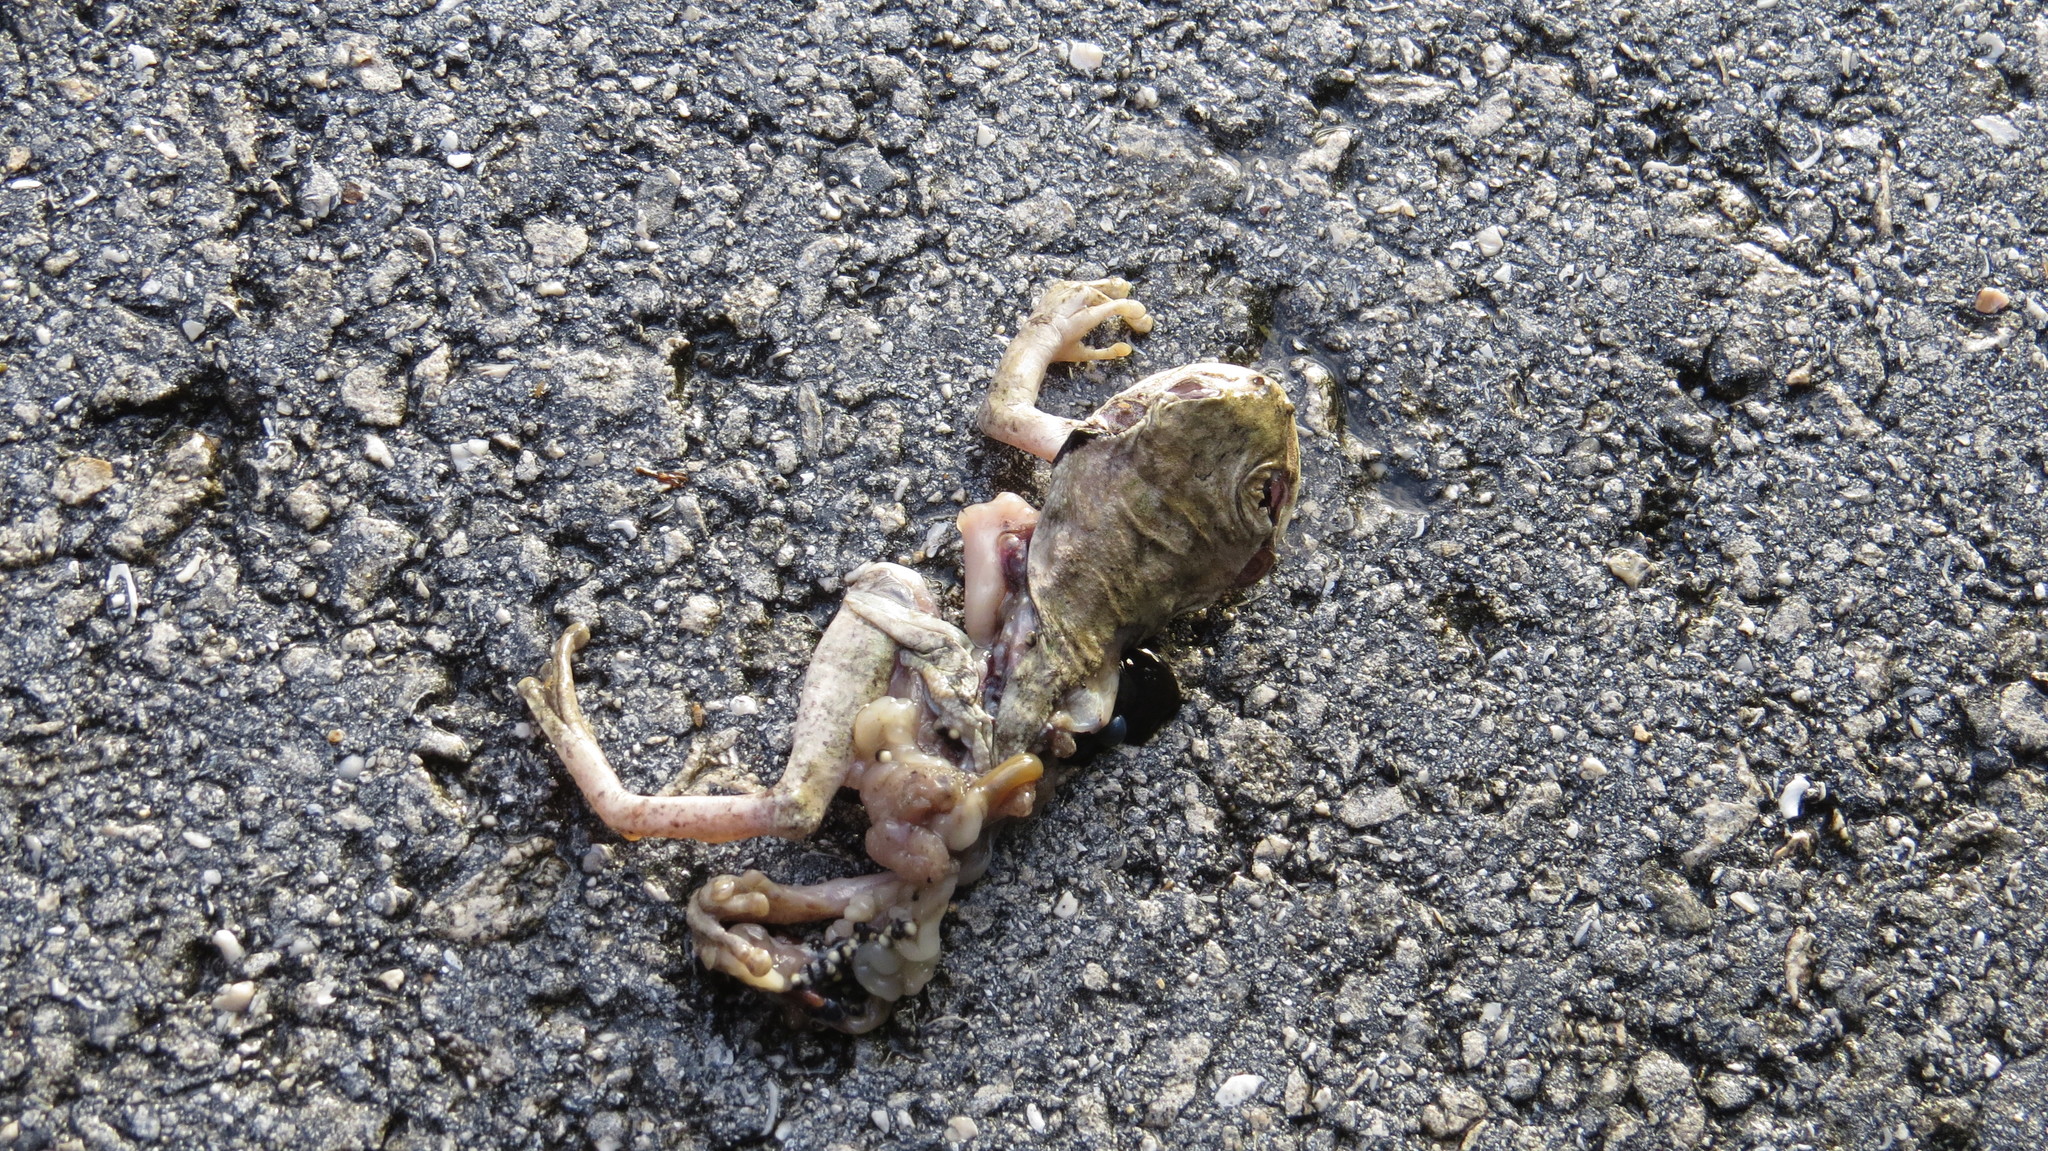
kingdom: Animalia
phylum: Chordata
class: Amphibia
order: Anura
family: Hylidae
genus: Smilisca
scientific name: Smilisca baudinii
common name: Mexican smilisca
